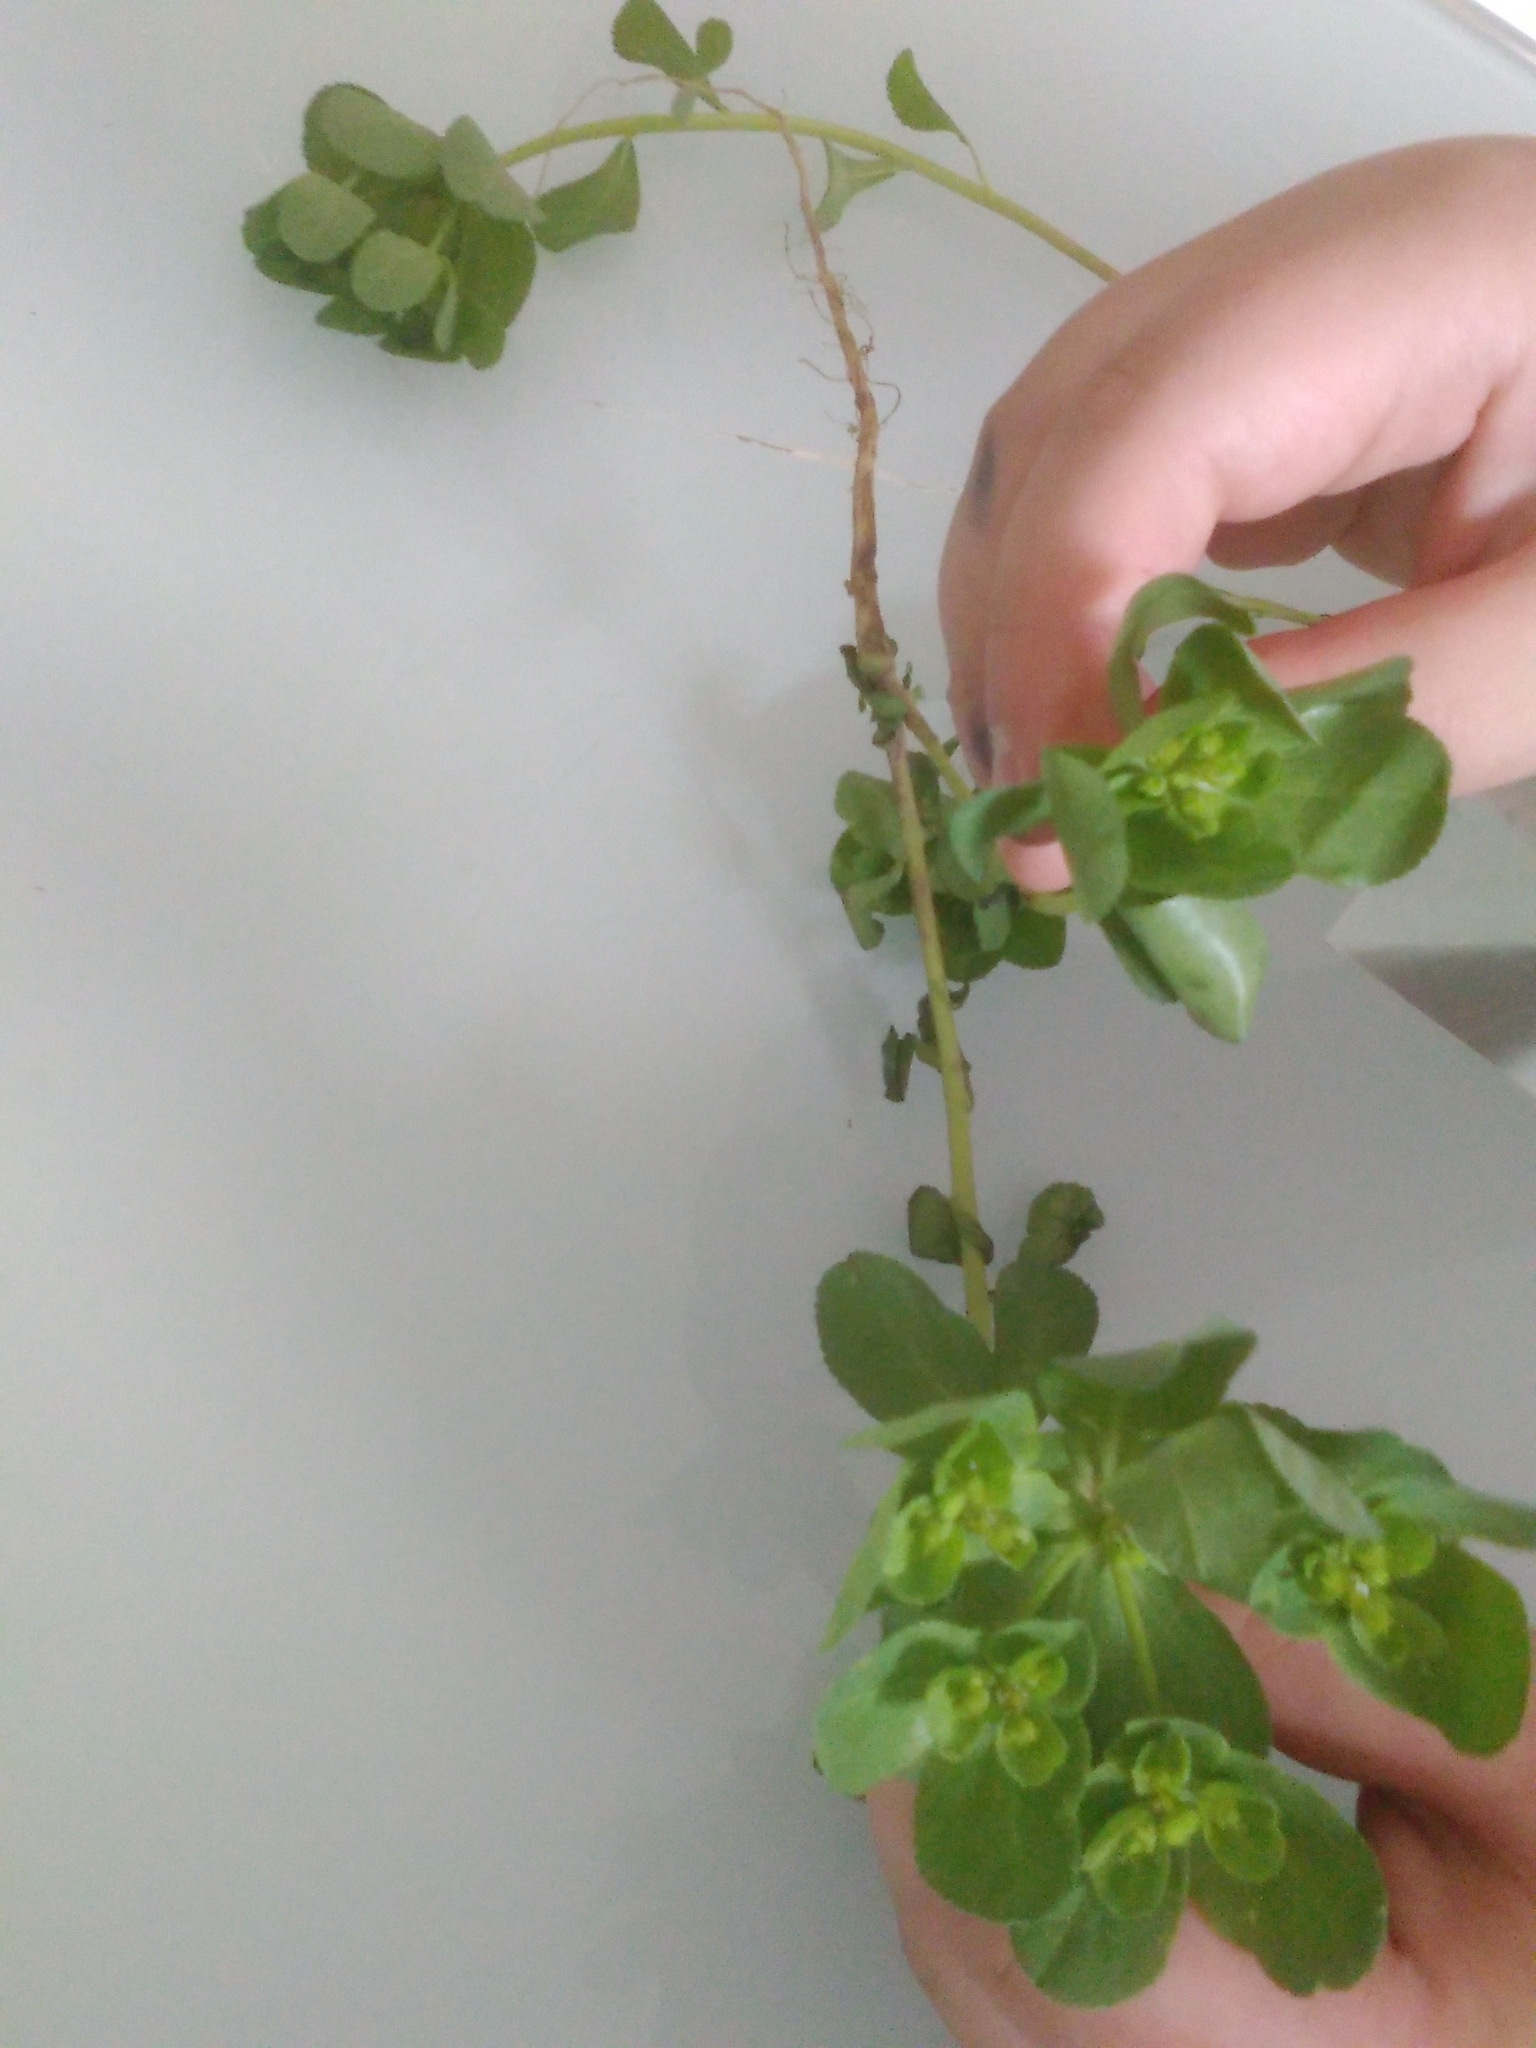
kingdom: Plantae
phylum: Tracheophyta
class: Magnoliopsida
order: Malpighiales
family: Euphorbiaceae
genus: Euphorbia
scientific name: Euphorbia helioscopia
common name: Sun spurge
